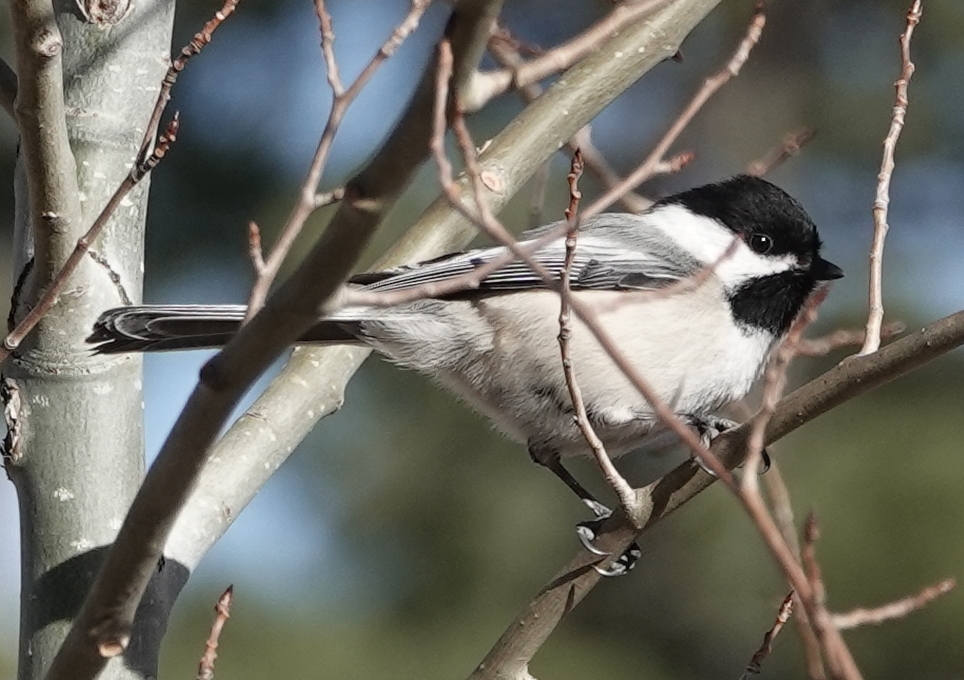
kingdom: Animalia
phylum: Chordata
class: Aves
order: Passeriformes
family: Paridae
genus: Poecile
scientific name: Poecile atricapillus
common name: Black-capped chickadee
